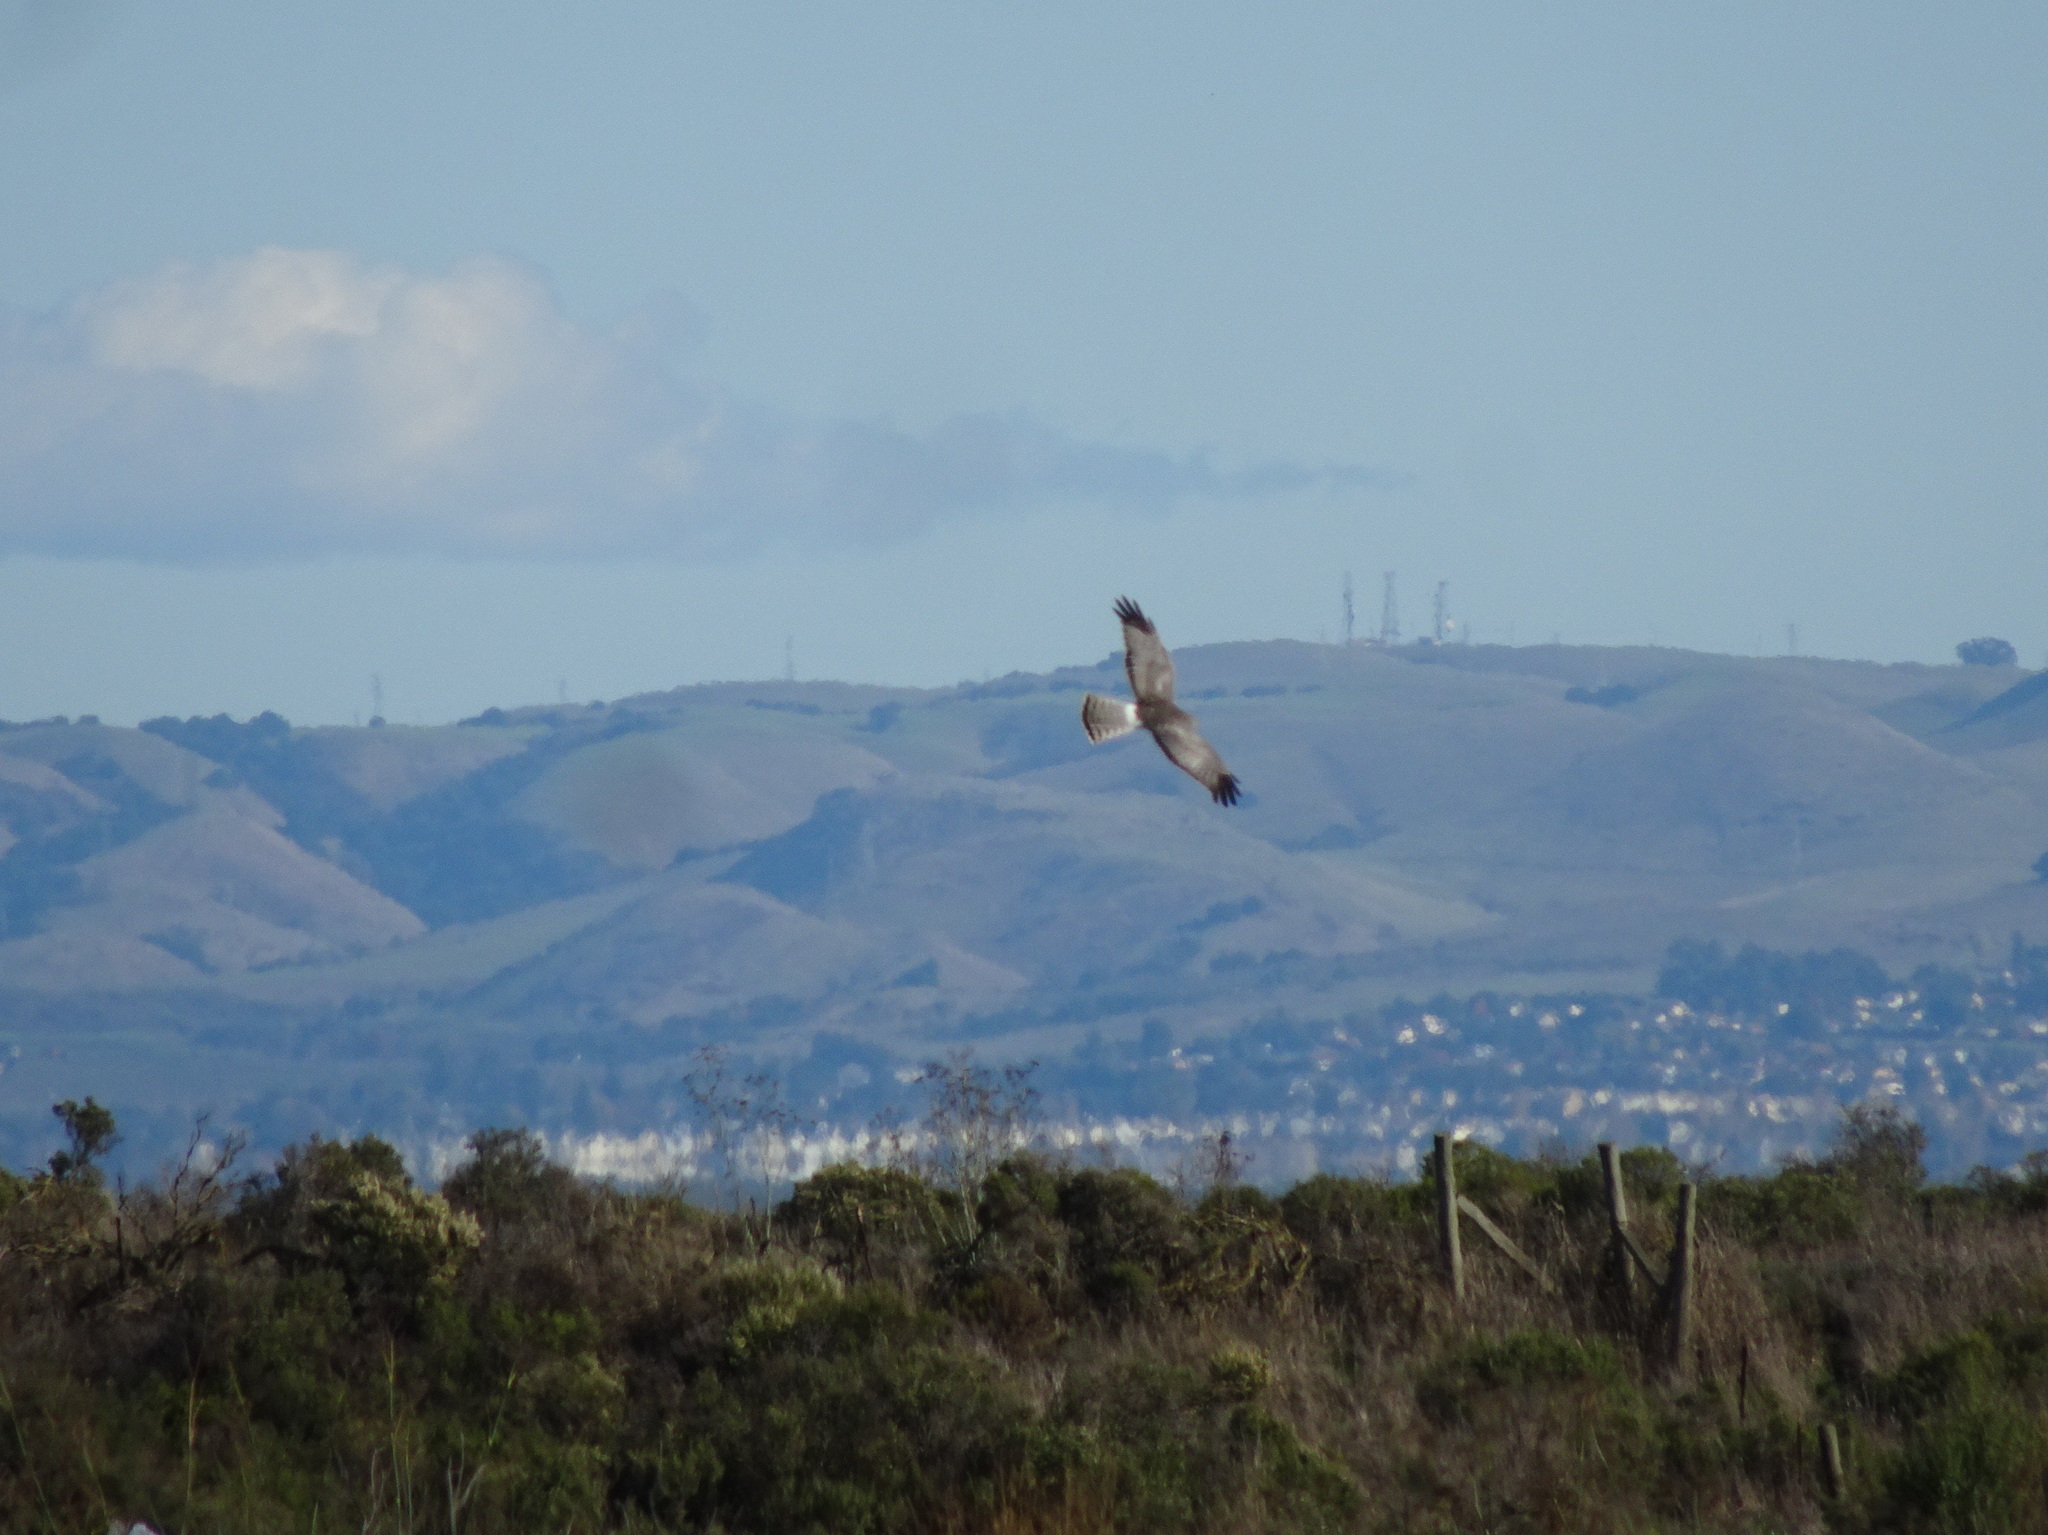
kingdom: Animalia
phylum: Chordata
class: Aves
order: Accipitriformes
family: Accipitridae
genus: Circus
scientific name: Circus cyaneus
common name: Hen harrier
